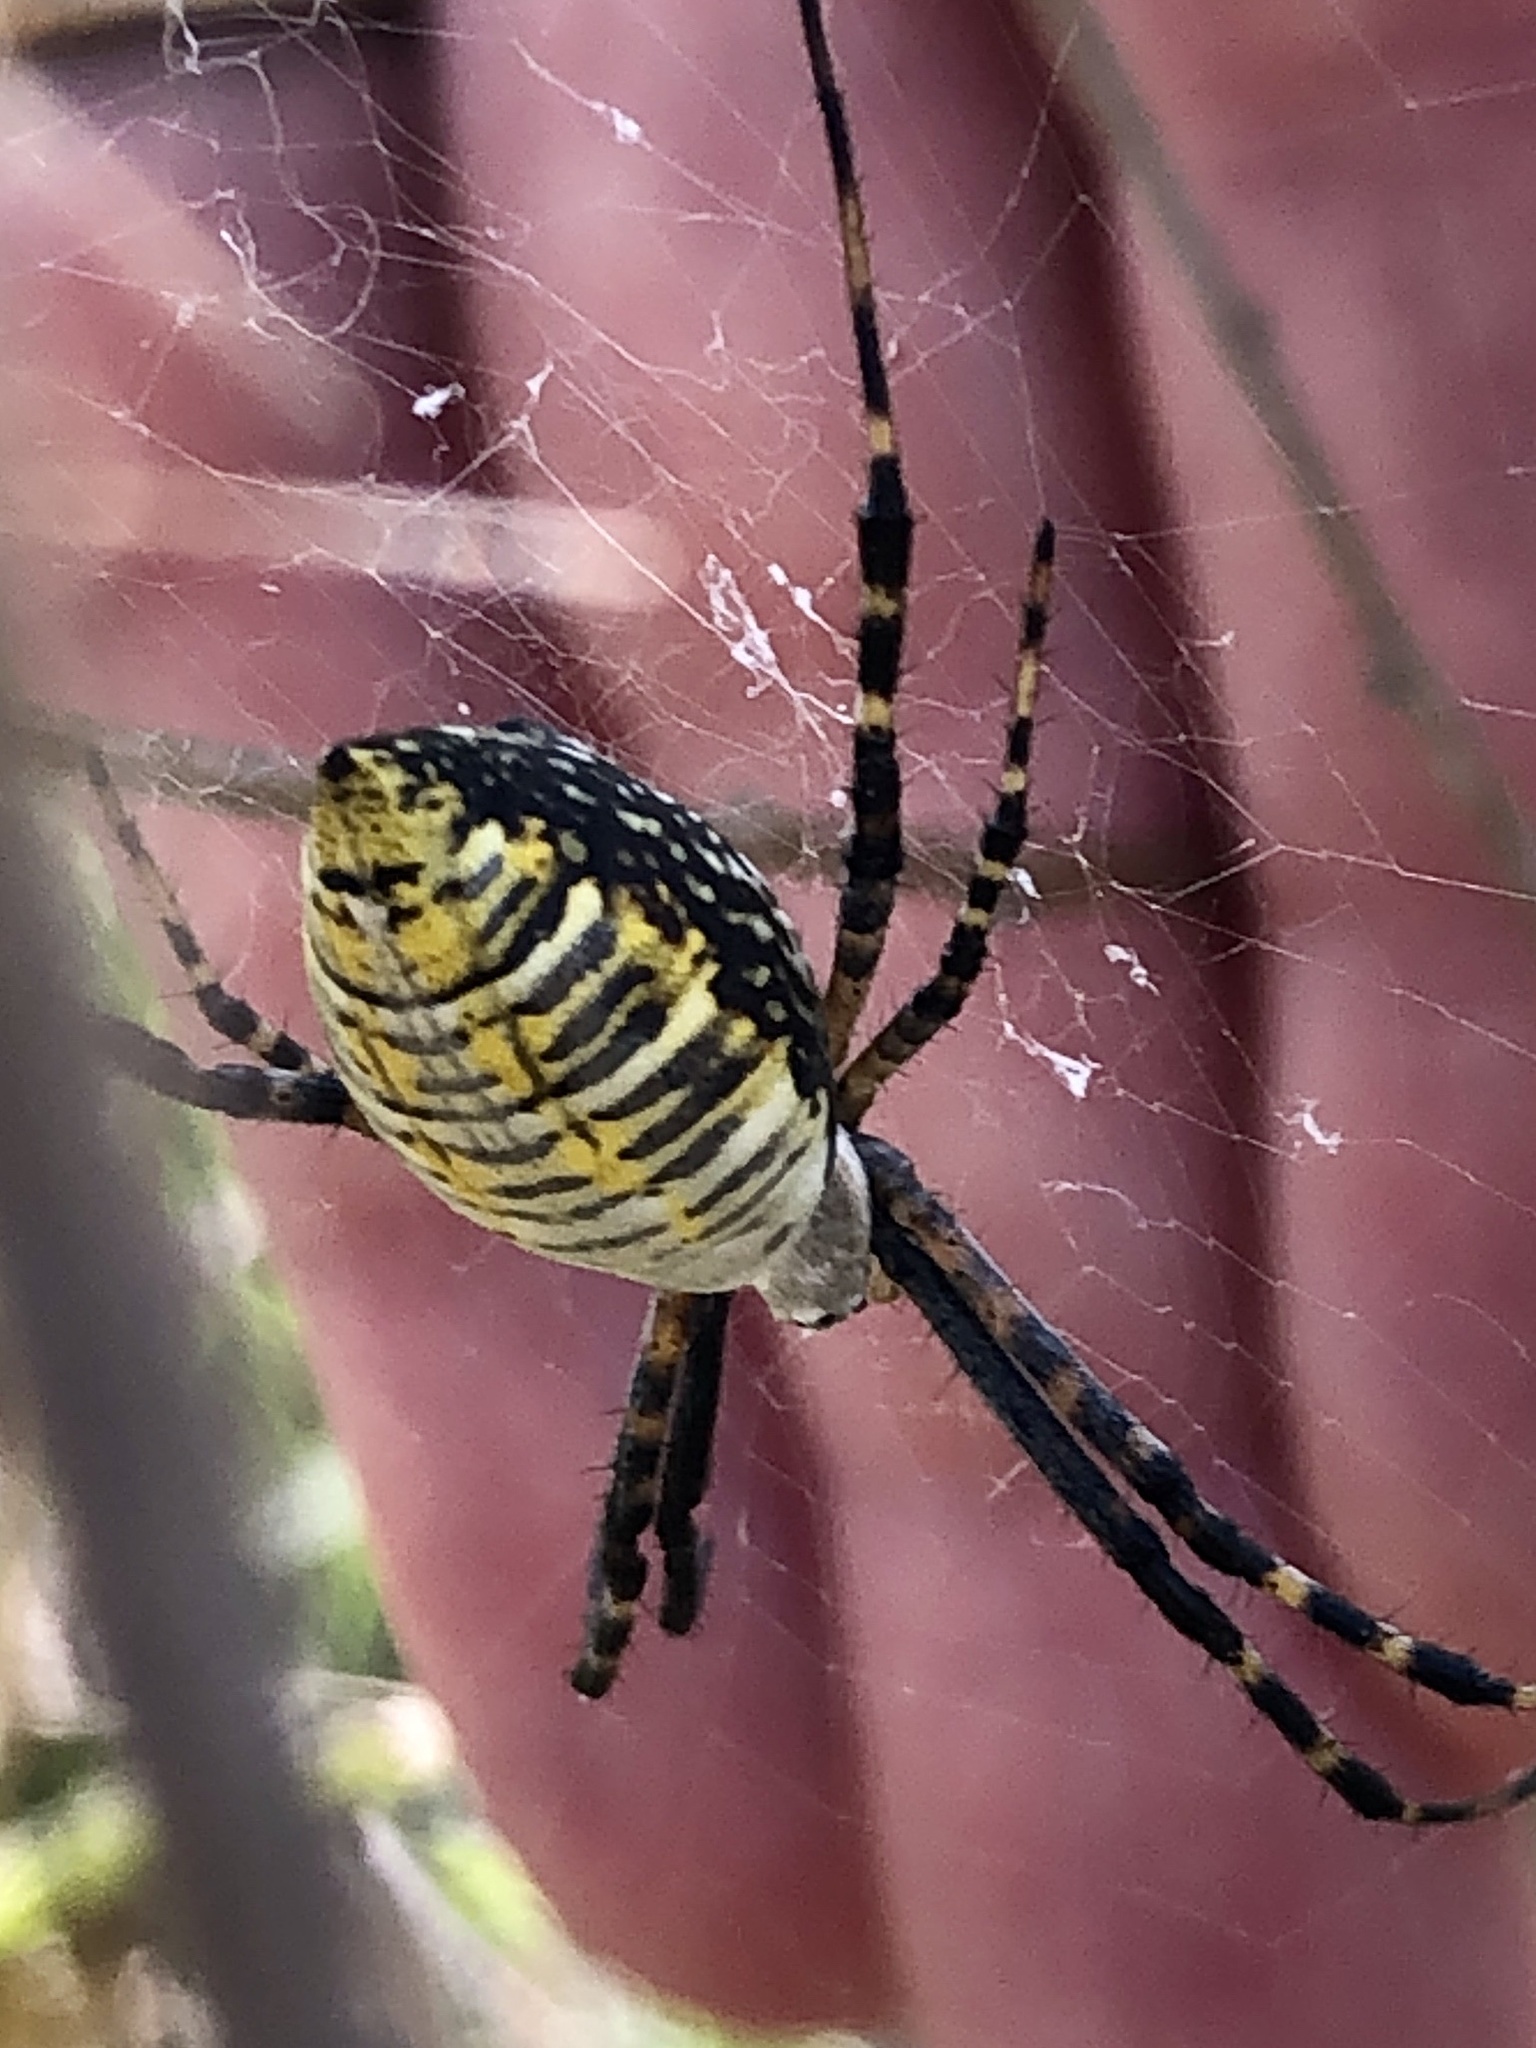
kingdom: Animalia
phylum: Arthropoda
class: Arachnida
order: Araneae
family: Araneidae
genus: Argiope
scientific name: Argiope trifasciata
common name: Banded garden spider
